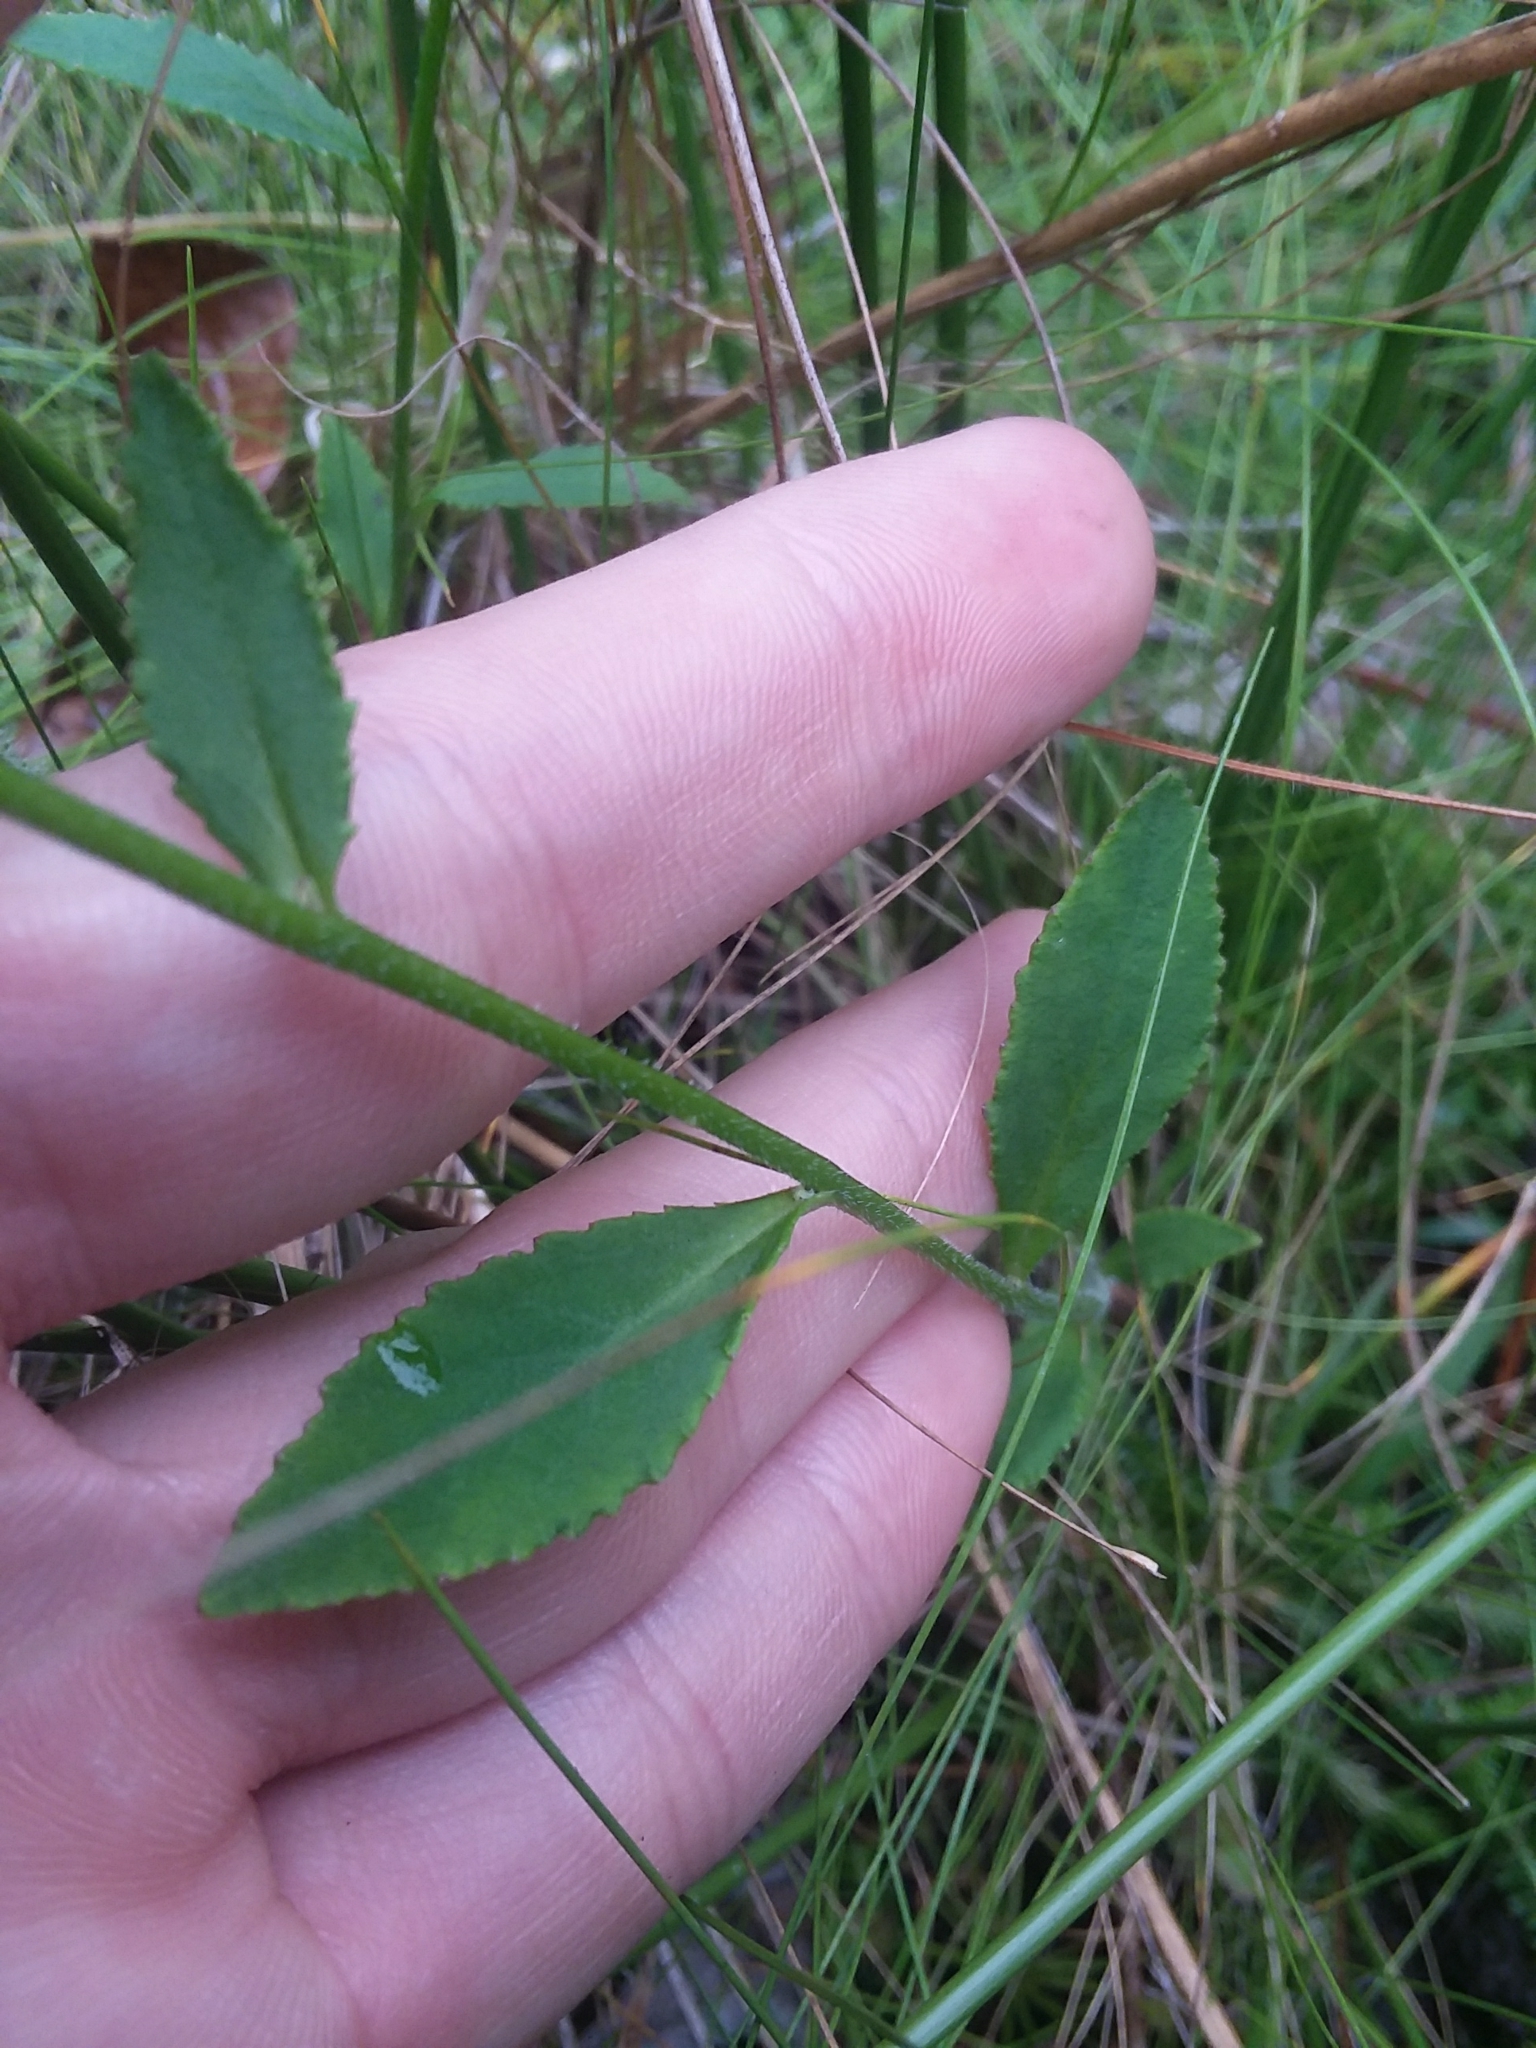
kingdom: Plantae
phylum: Tracheophyta
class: Magnoliopsida
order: Asterales
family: Campanulaceae
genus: Lobelia
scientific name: Lobelia rogersii
